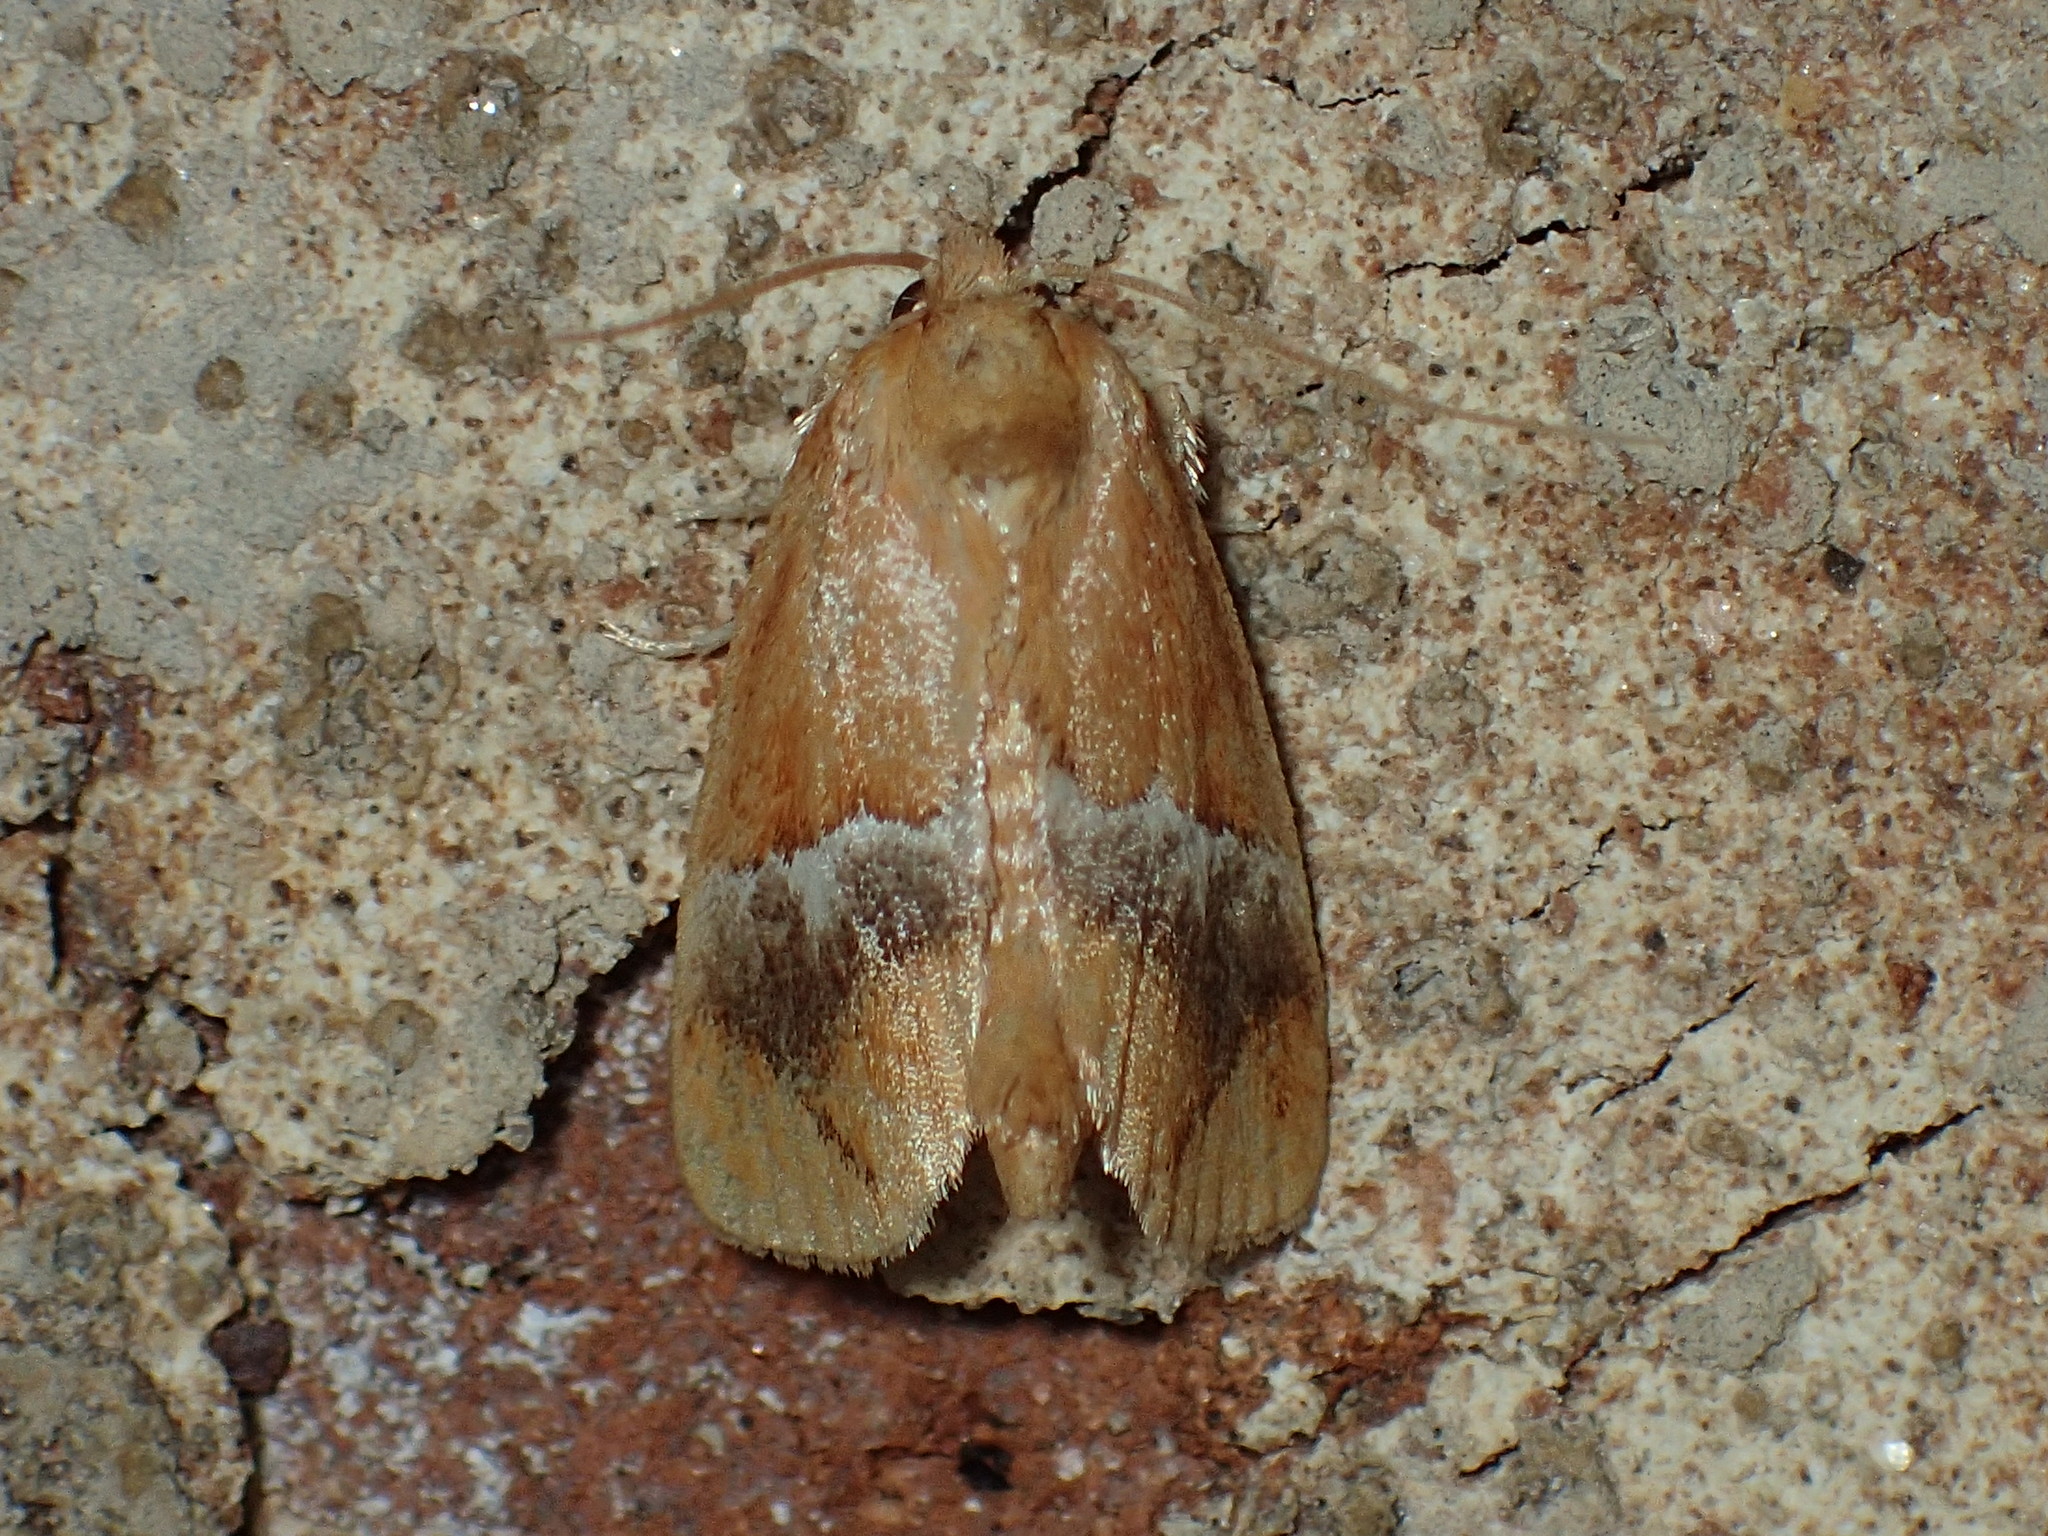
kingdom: Animalia
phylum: Arthropoda
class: Insecta
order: Lepidoptera
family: Limacodidae
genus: Lithacodes
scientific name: Lithacodes fasciola
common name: Yellow-shouldered slug moth
